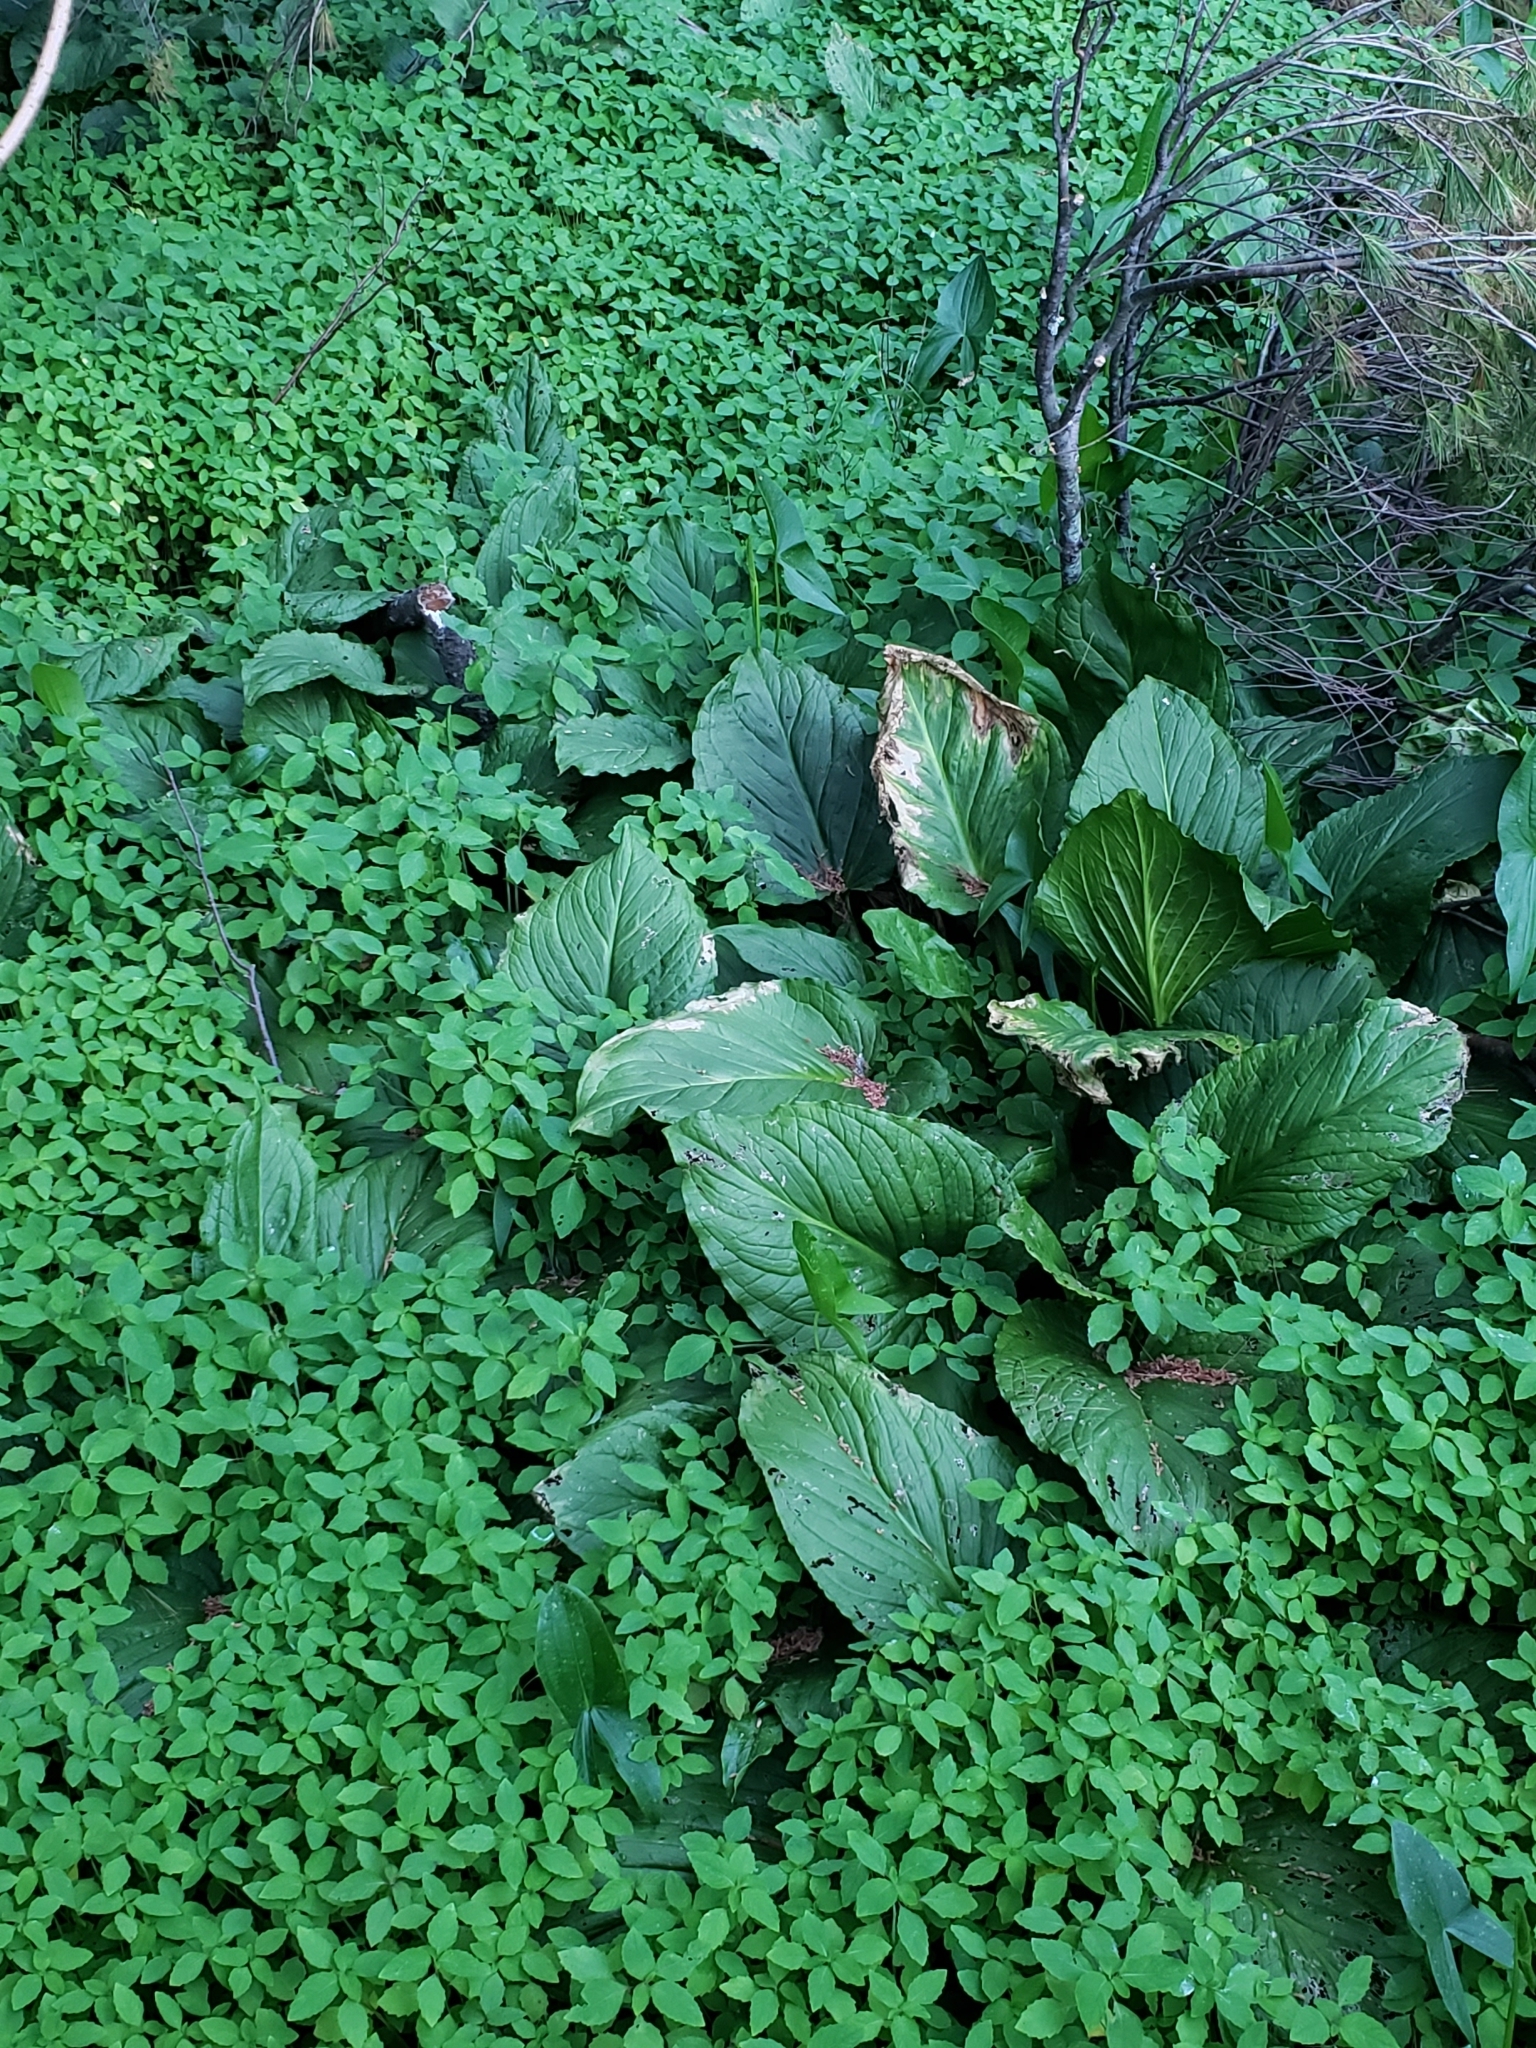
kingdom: Plantae
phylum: Tracheophyta
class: Liliopsida
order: Alismatales
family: Araceae
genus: Symplocarpus
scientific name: Symplocarpus foetidus
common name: Eastern skunk cabbage
